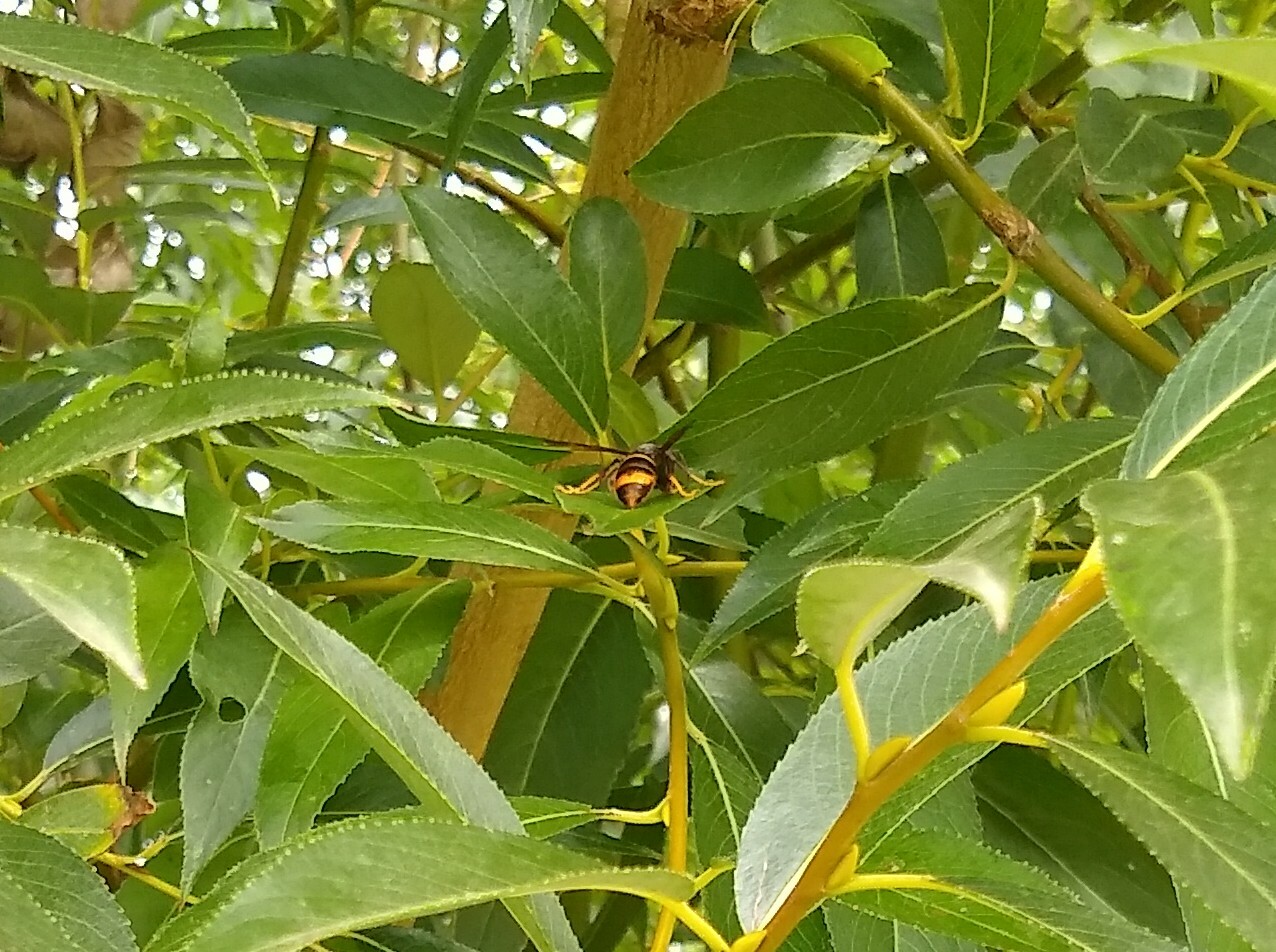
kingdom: Animalia
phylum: Arthropoda
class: Insecta
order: Hymenoptera
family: Vespidae
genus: Vespa
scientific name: Vespa velutina
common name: Asian hornet
